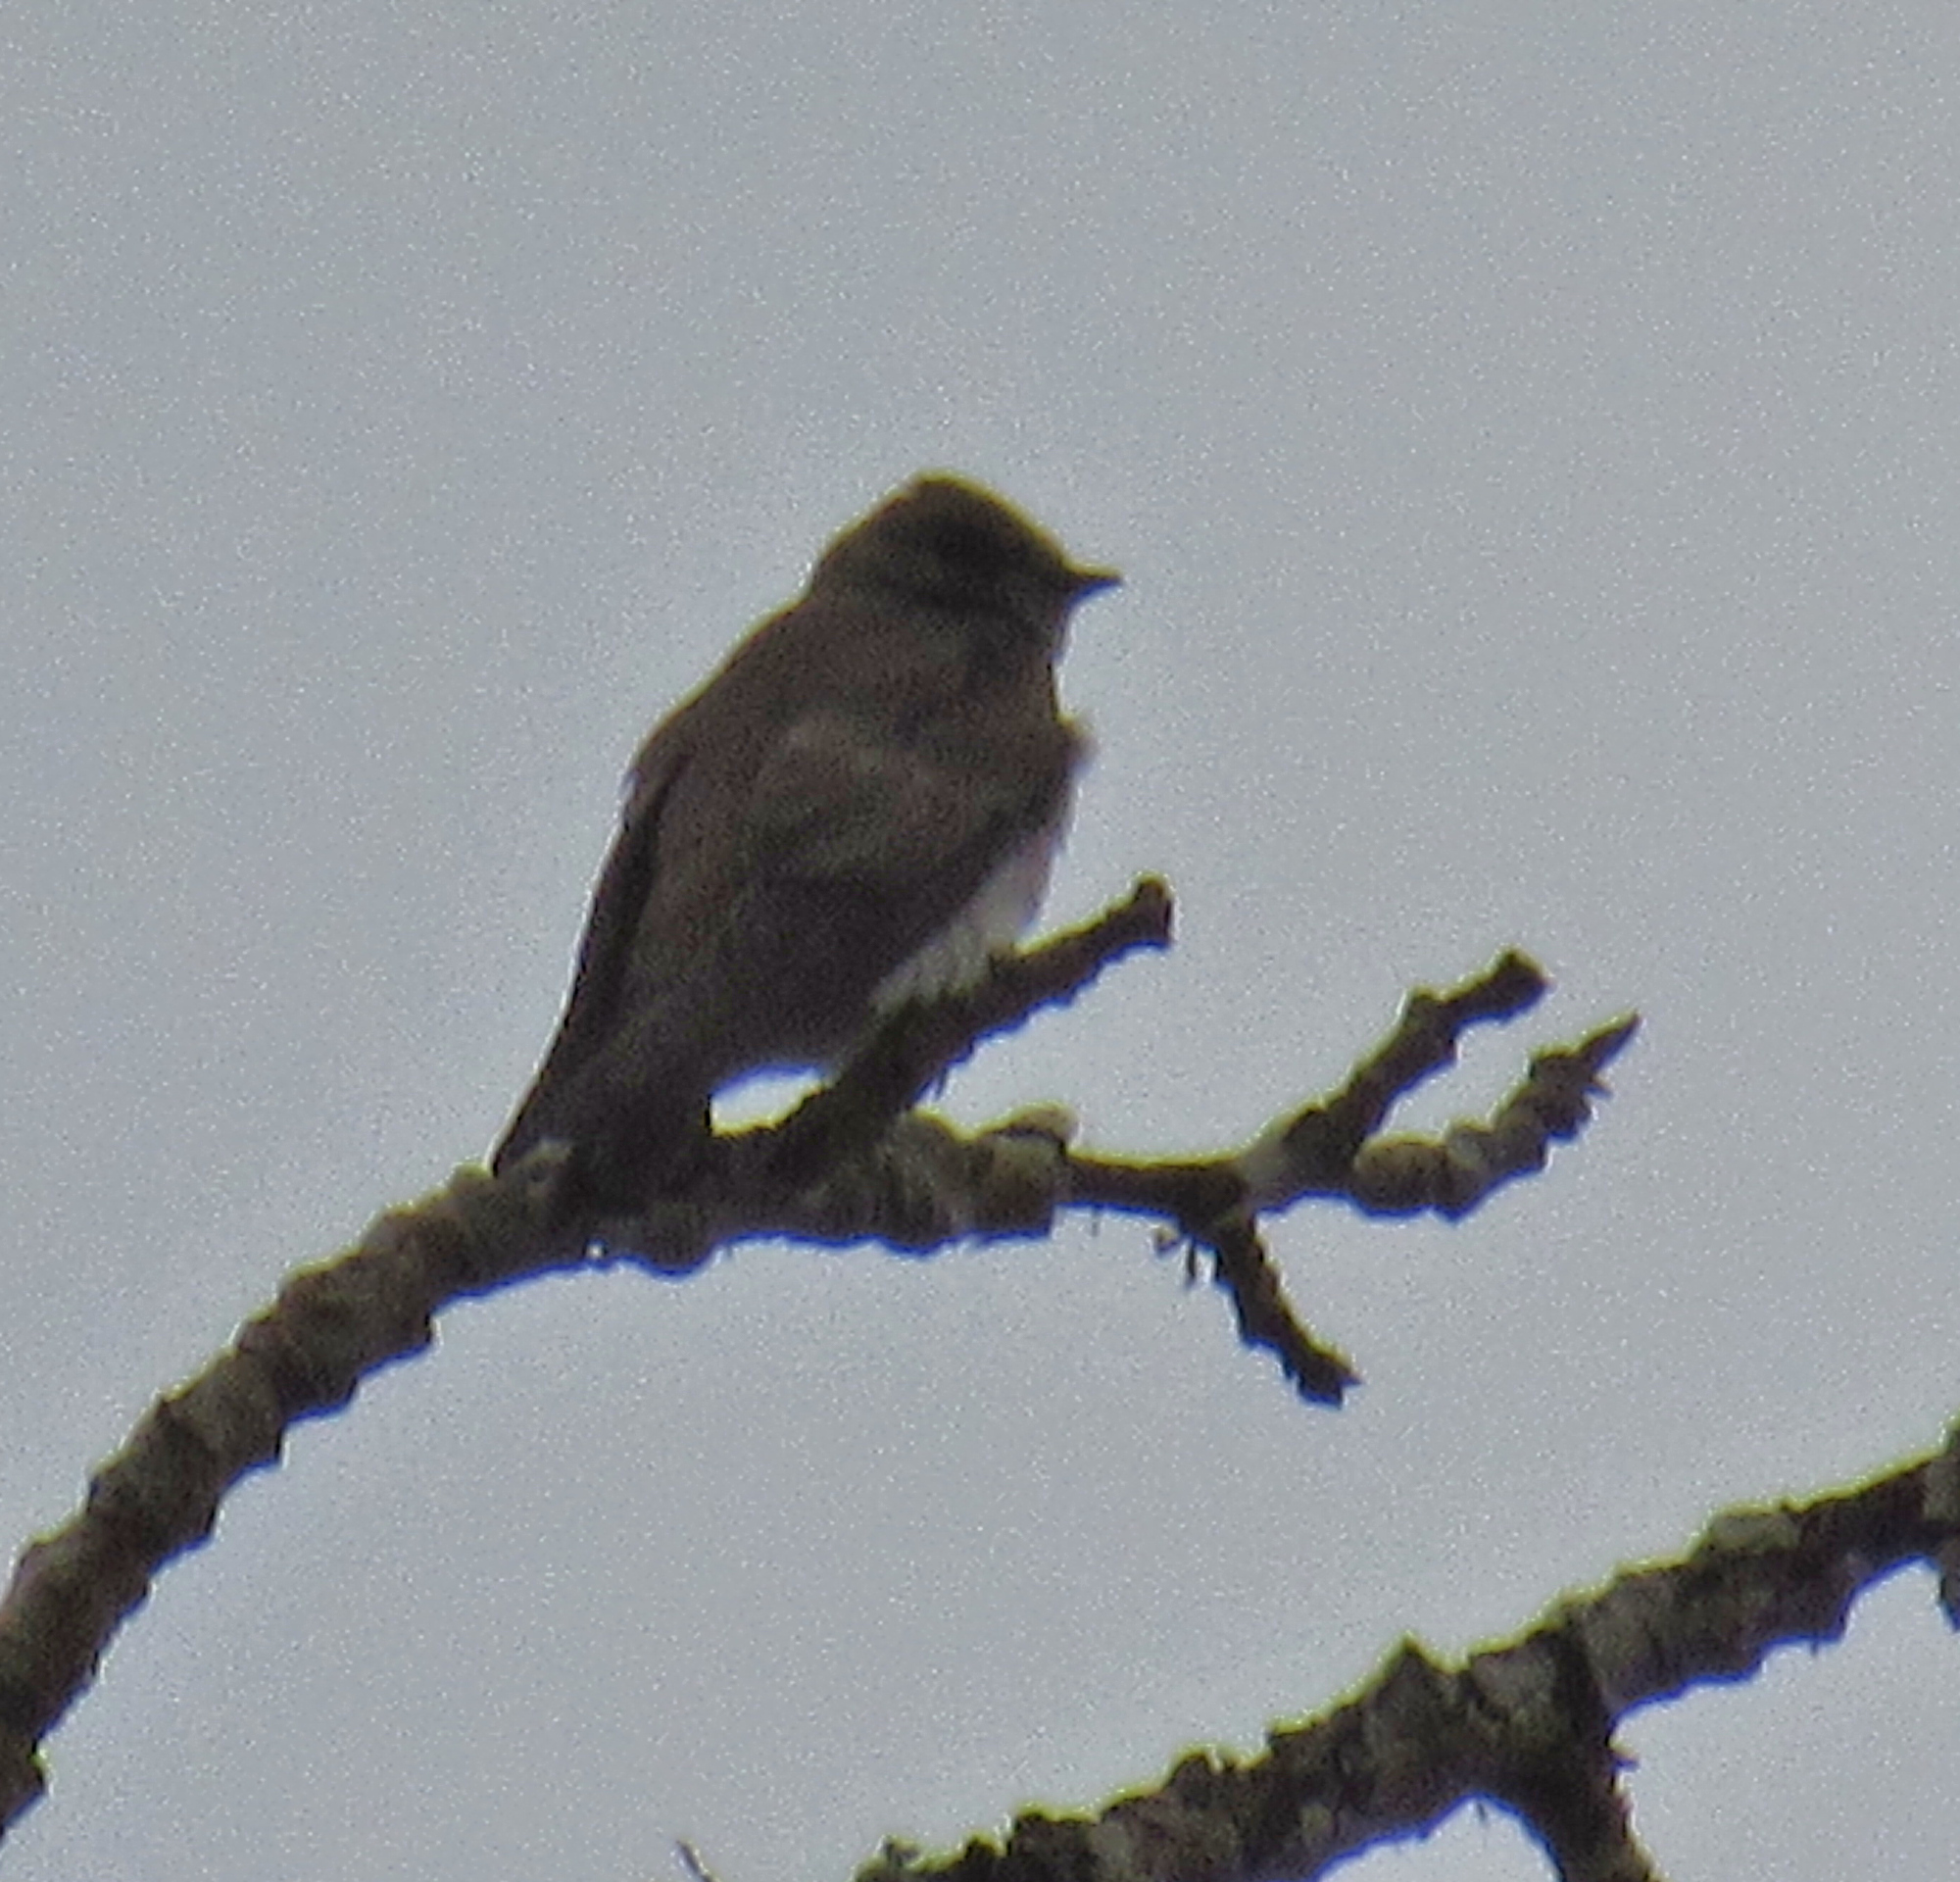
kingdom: Animalia
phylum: Chordata
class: Aves
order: Passeriformes
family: Hirundinidae
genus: Stelgidopteryx
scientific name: Stelgidopteryx serripennis
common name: Northern rough-winged swallow
